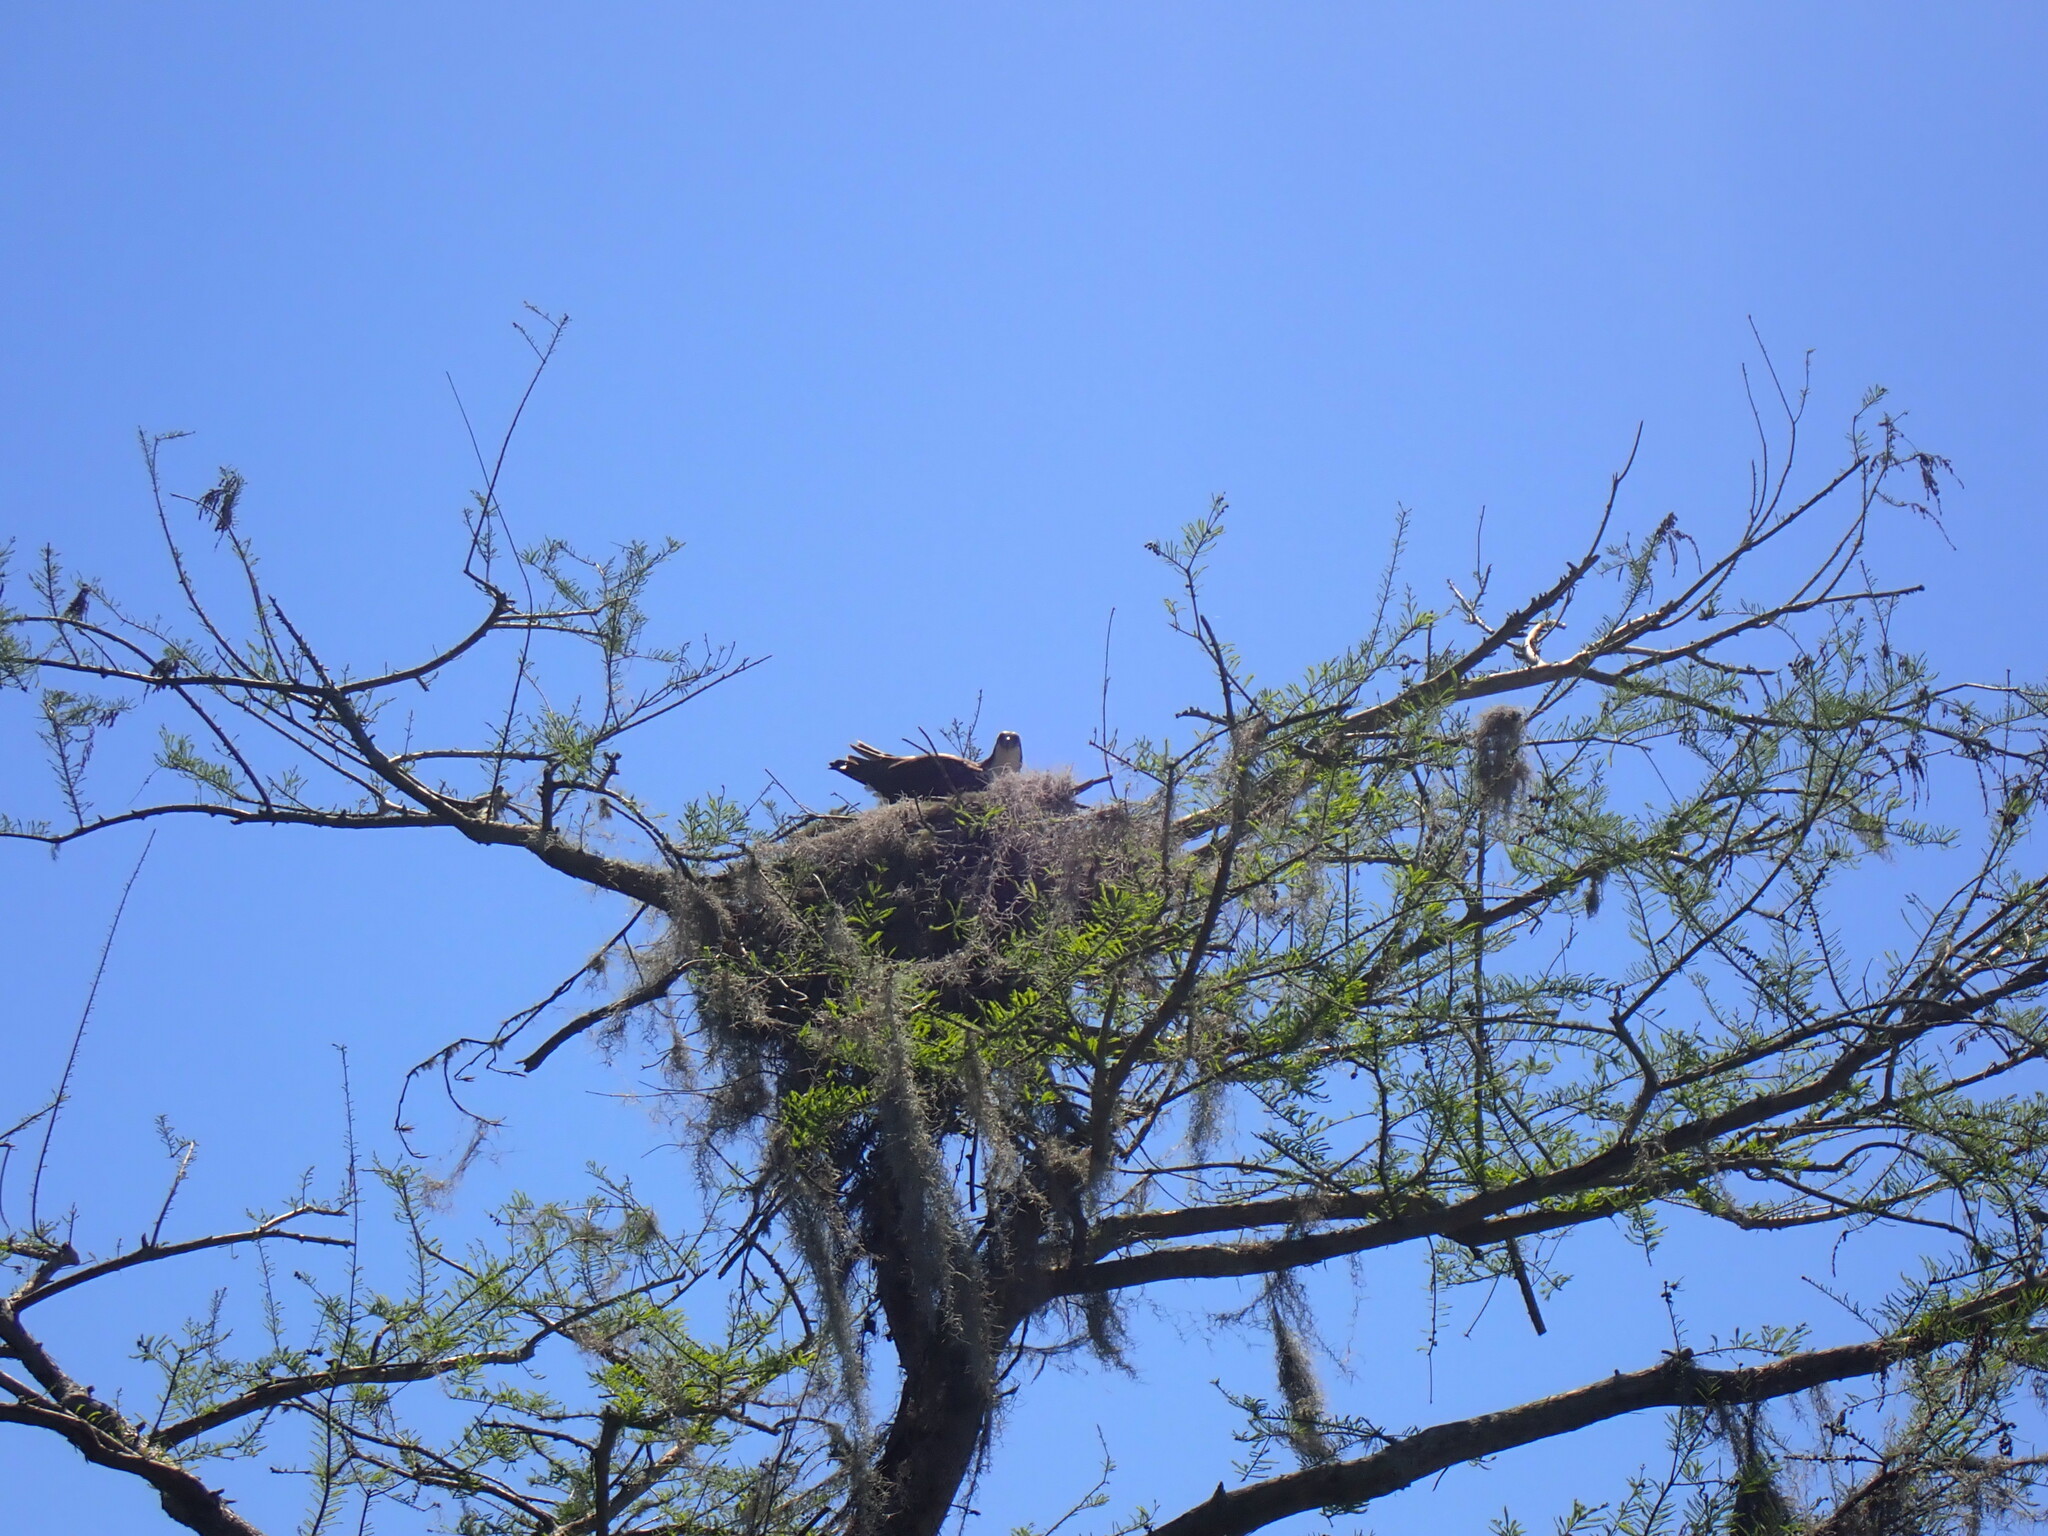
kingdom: Animalia
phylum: Chordata
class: Aves
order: Accipitriformes
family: Pandionidae
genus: Pandion
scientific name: Pandion haliaetus
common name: Osprey
